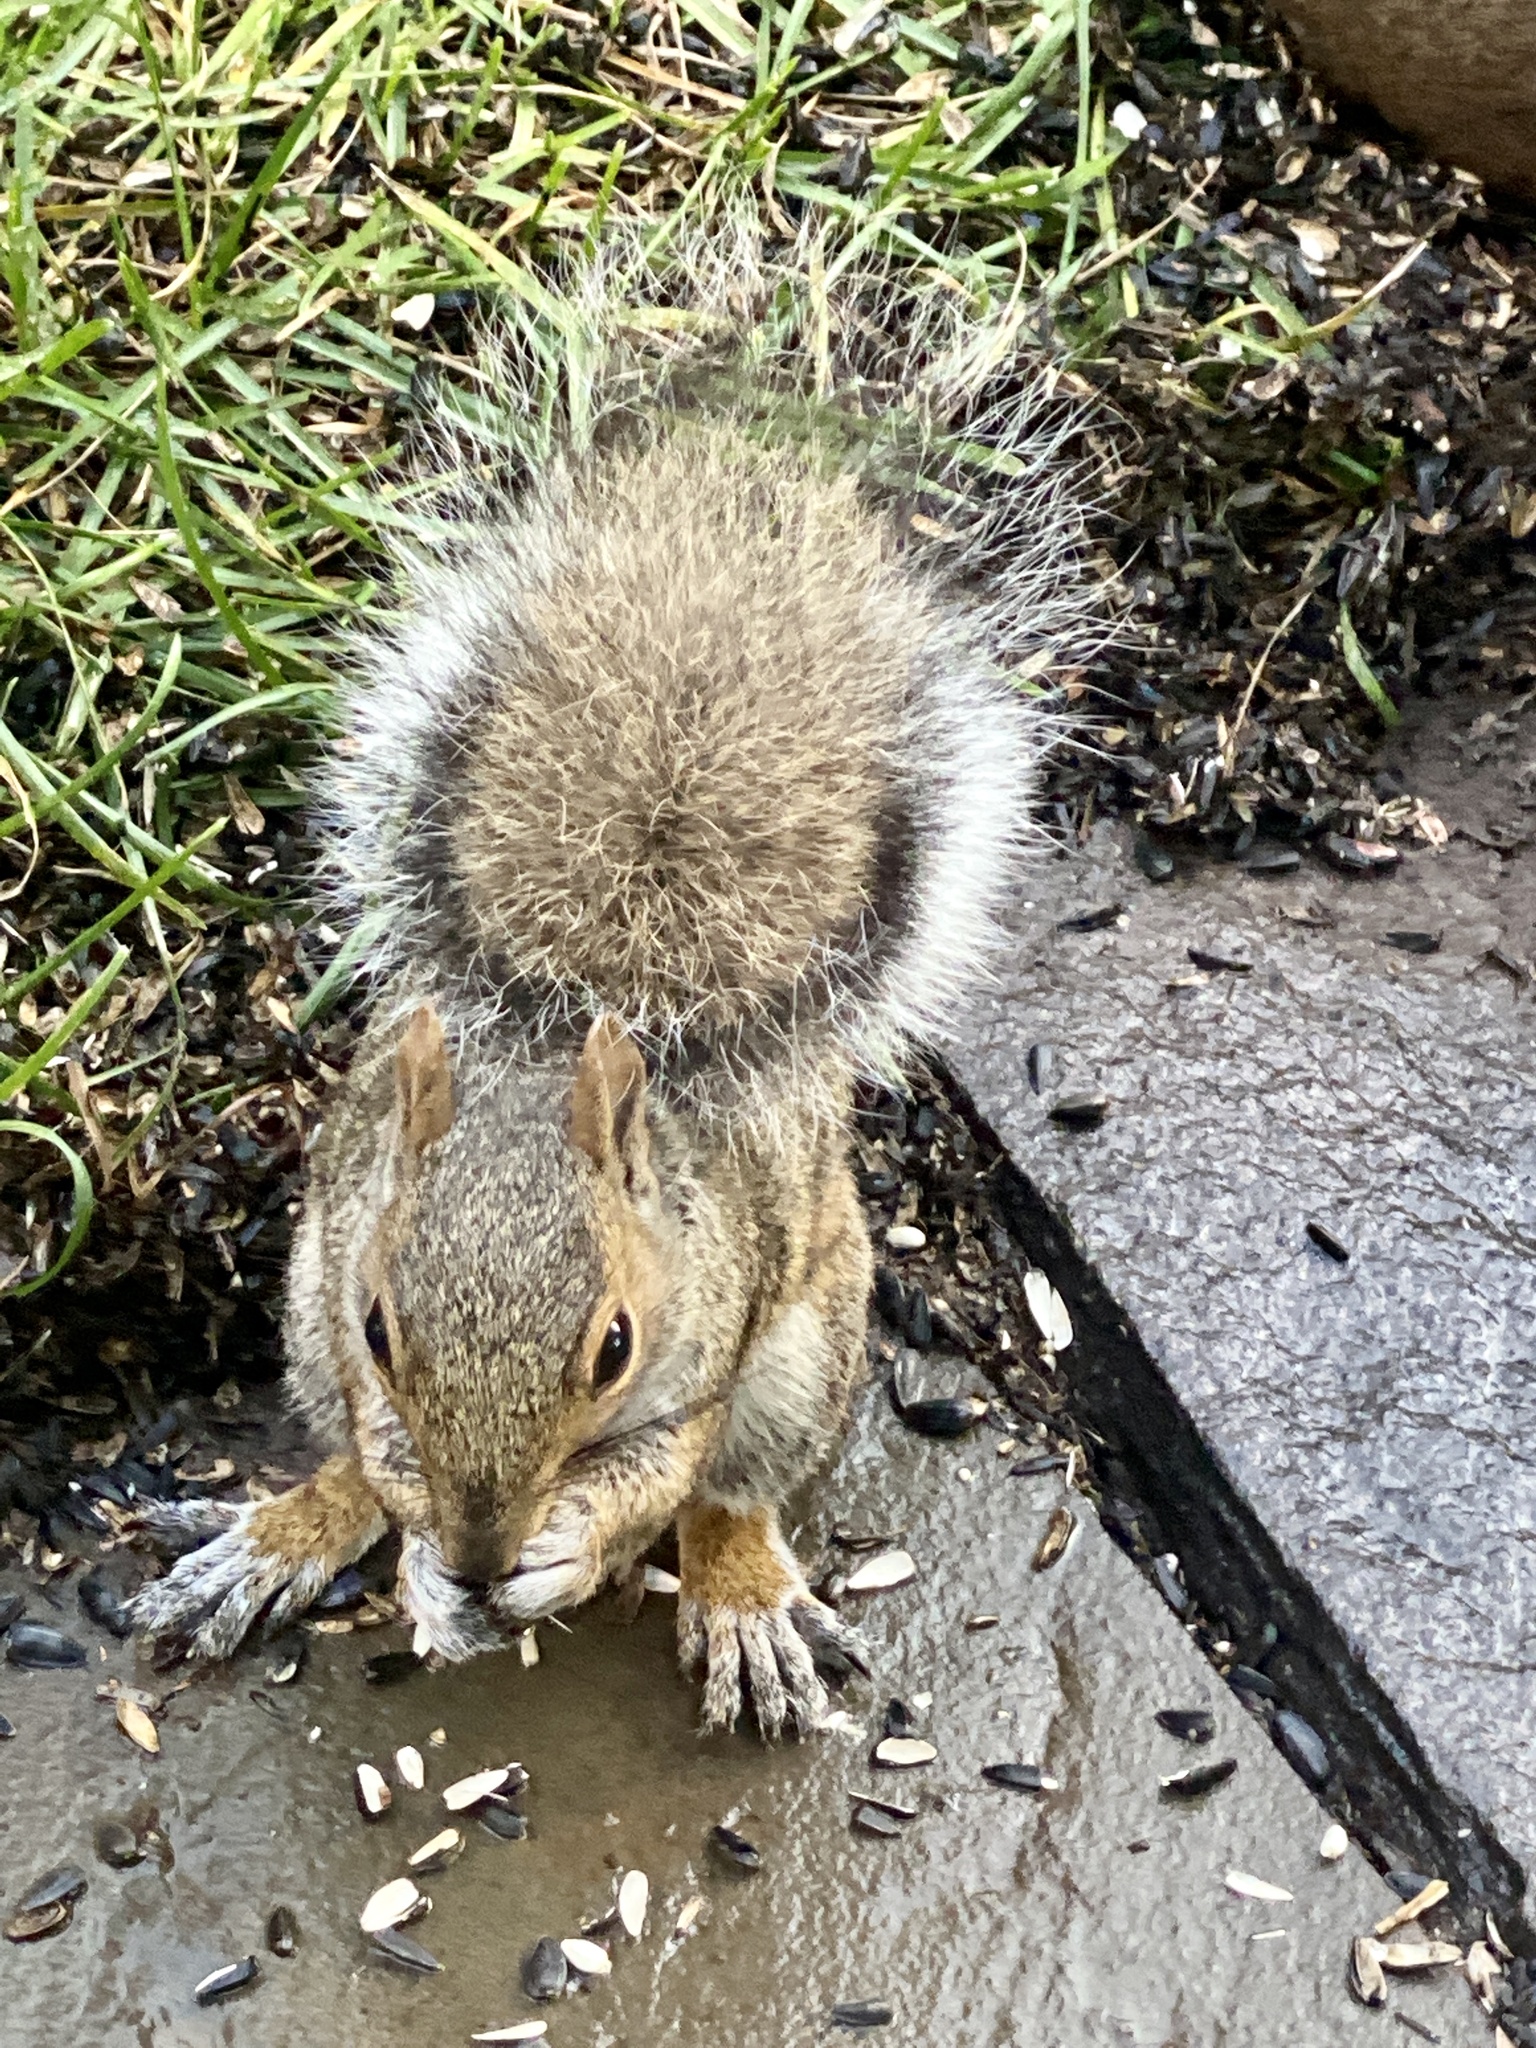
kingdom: Animalia
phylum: Chordata
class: Mammalia
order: Rodentia
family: Sciuridae
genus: Sciurus
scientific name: Sciurus carolinensis
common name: Eastern gray squirrel
